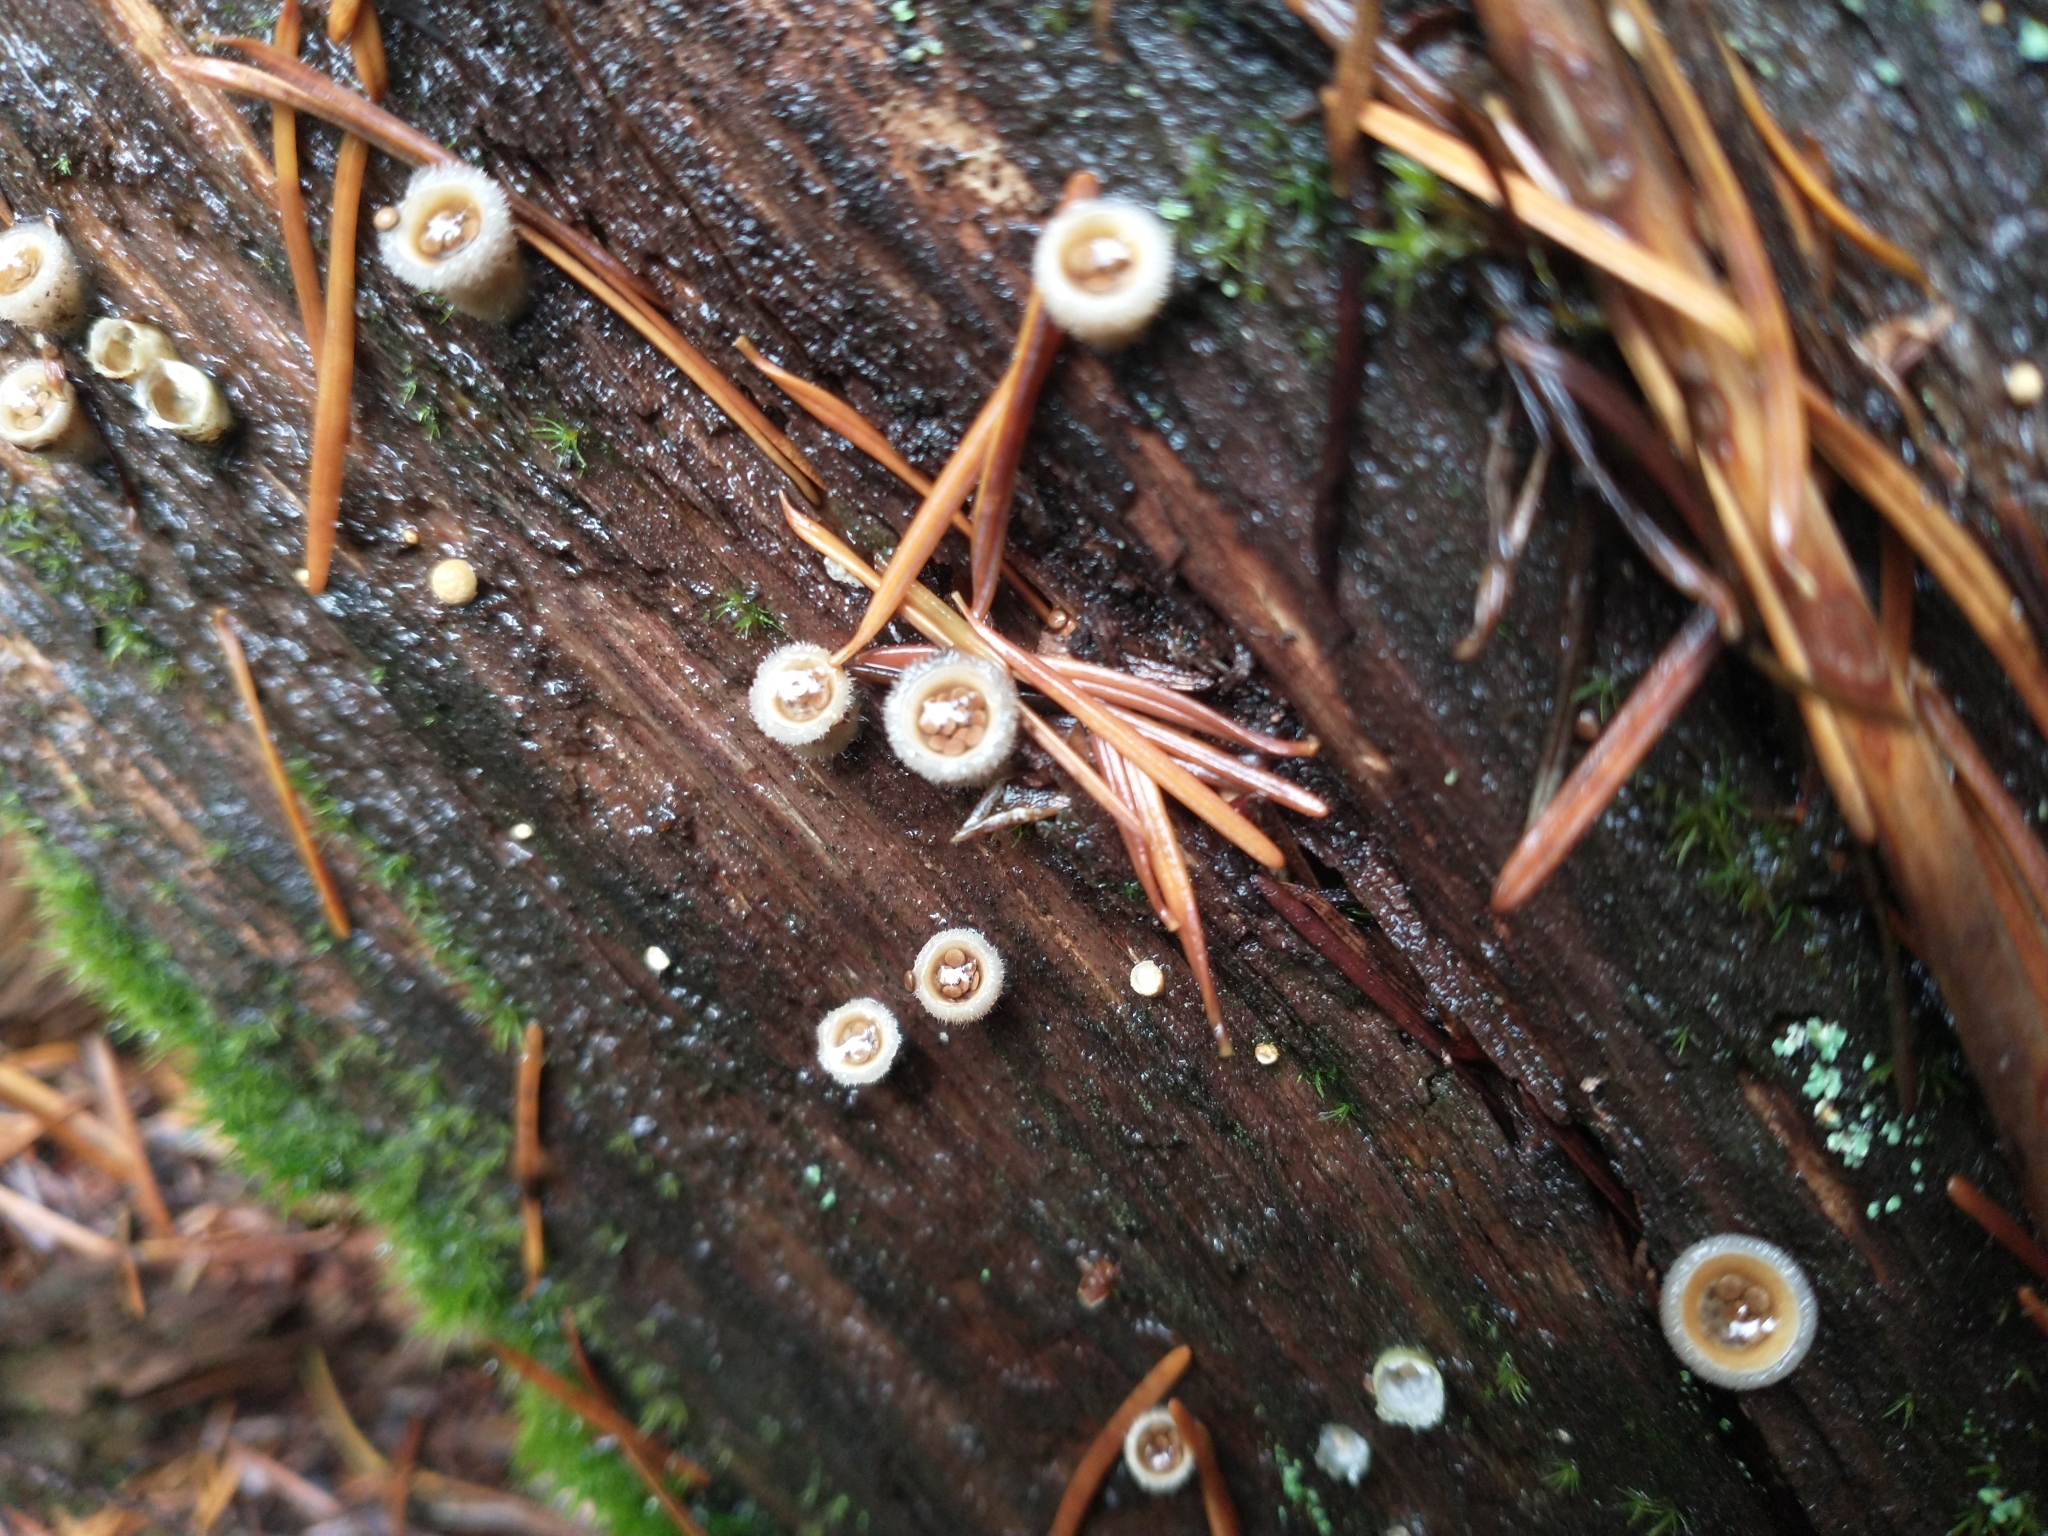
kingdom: Fungi
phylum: Basidiomycota
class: Agaricomycetes
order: Agaricales
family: Agaricaceae
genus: Nidula
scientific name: Nidula niveotomentosa
